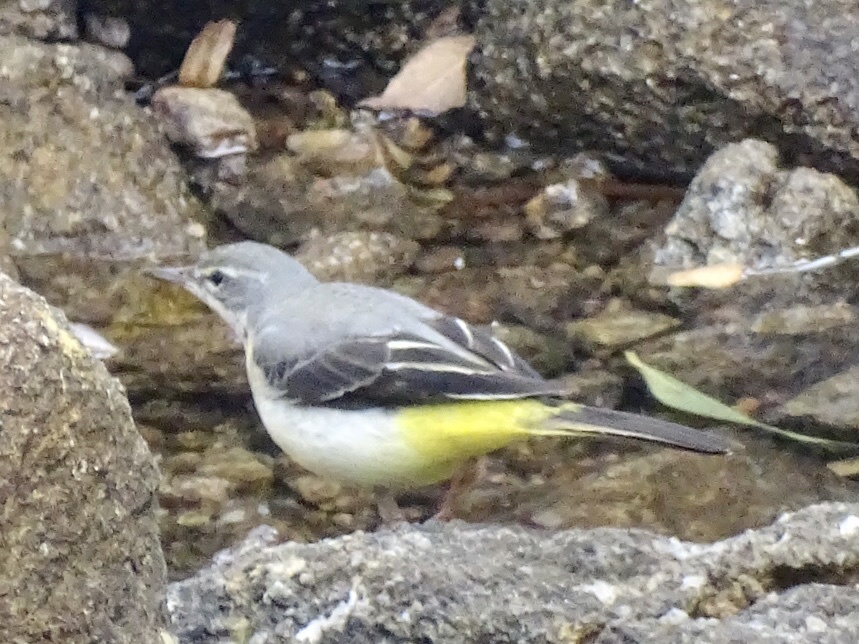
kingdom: Animalia
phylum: Chordata
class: Aves
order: Passeriformes
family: Motacillidae
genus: Motacilla
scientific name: Motacilla cinerea
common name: Grey wagtail
